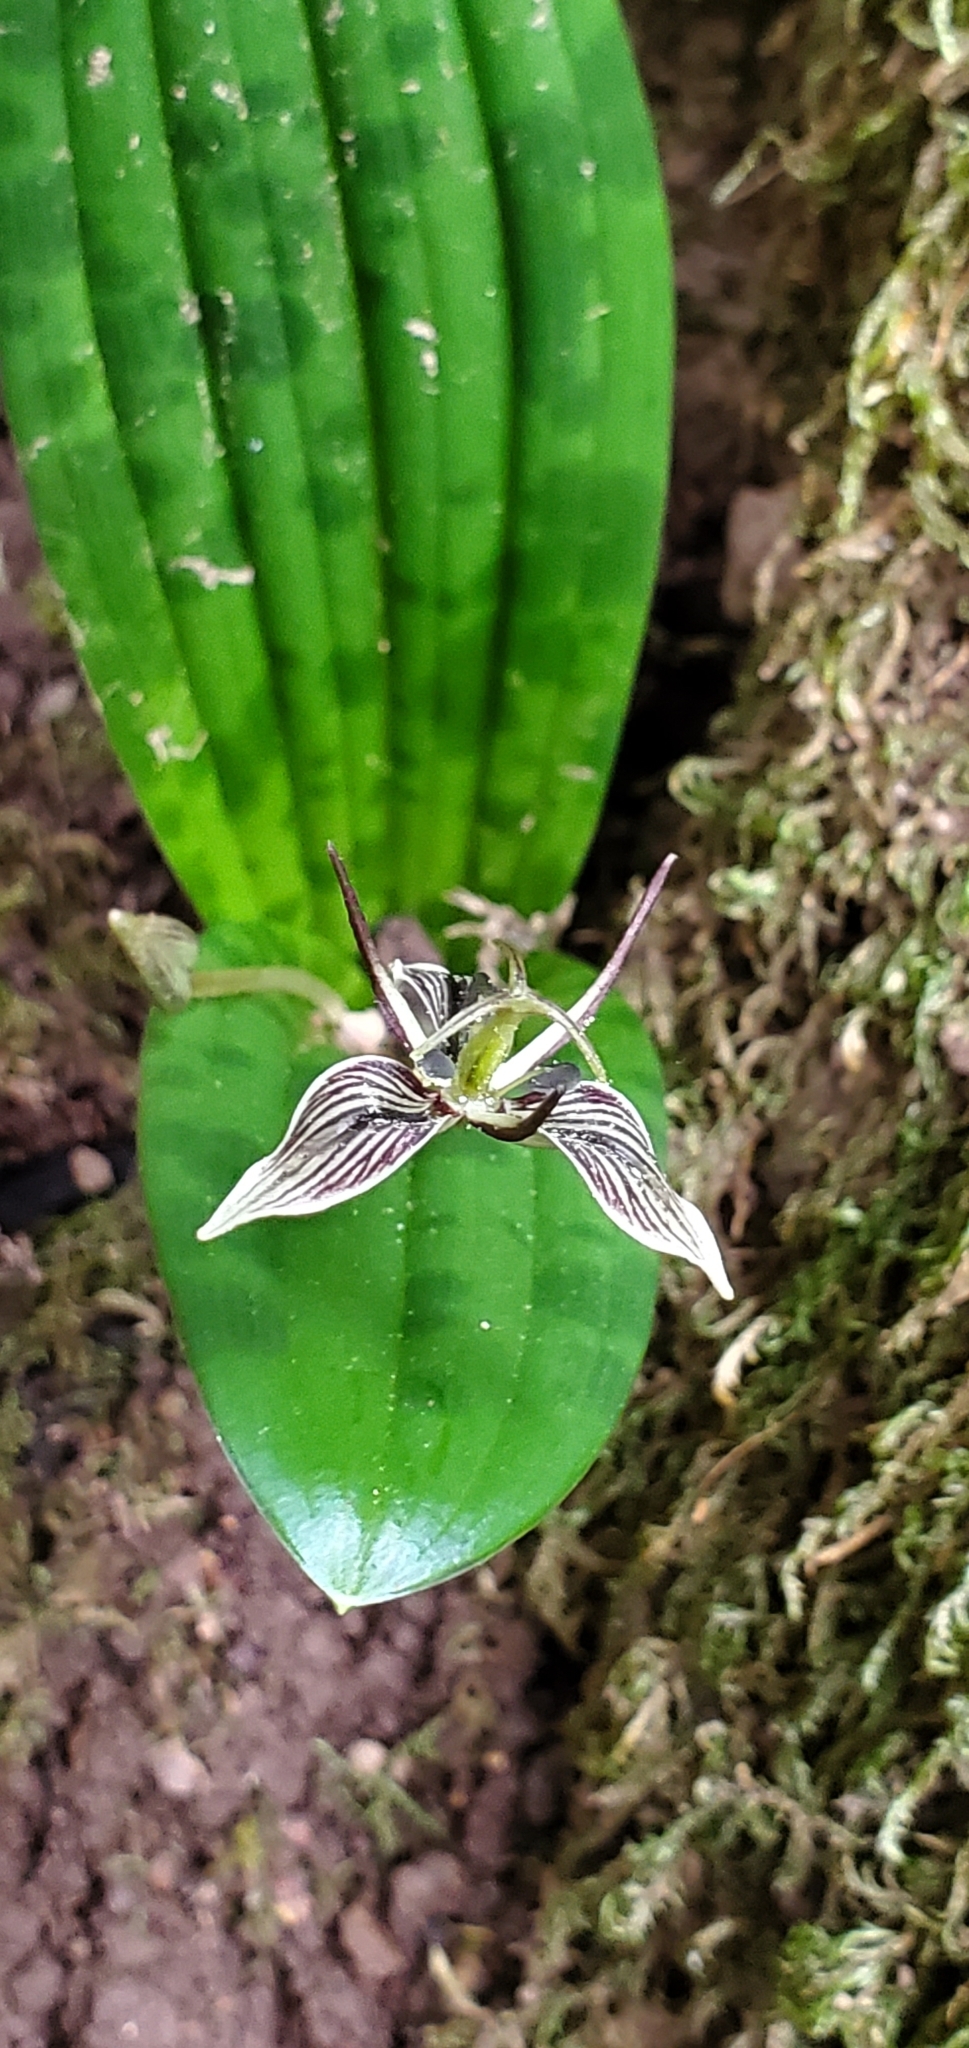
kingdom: Plantae
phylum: Tracheophyta
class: Liliopsida
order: Liliales
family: Liliaceae
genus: Scoliopus
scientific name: Scoliopus bigelovii
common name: Foetid adder's-tongue
